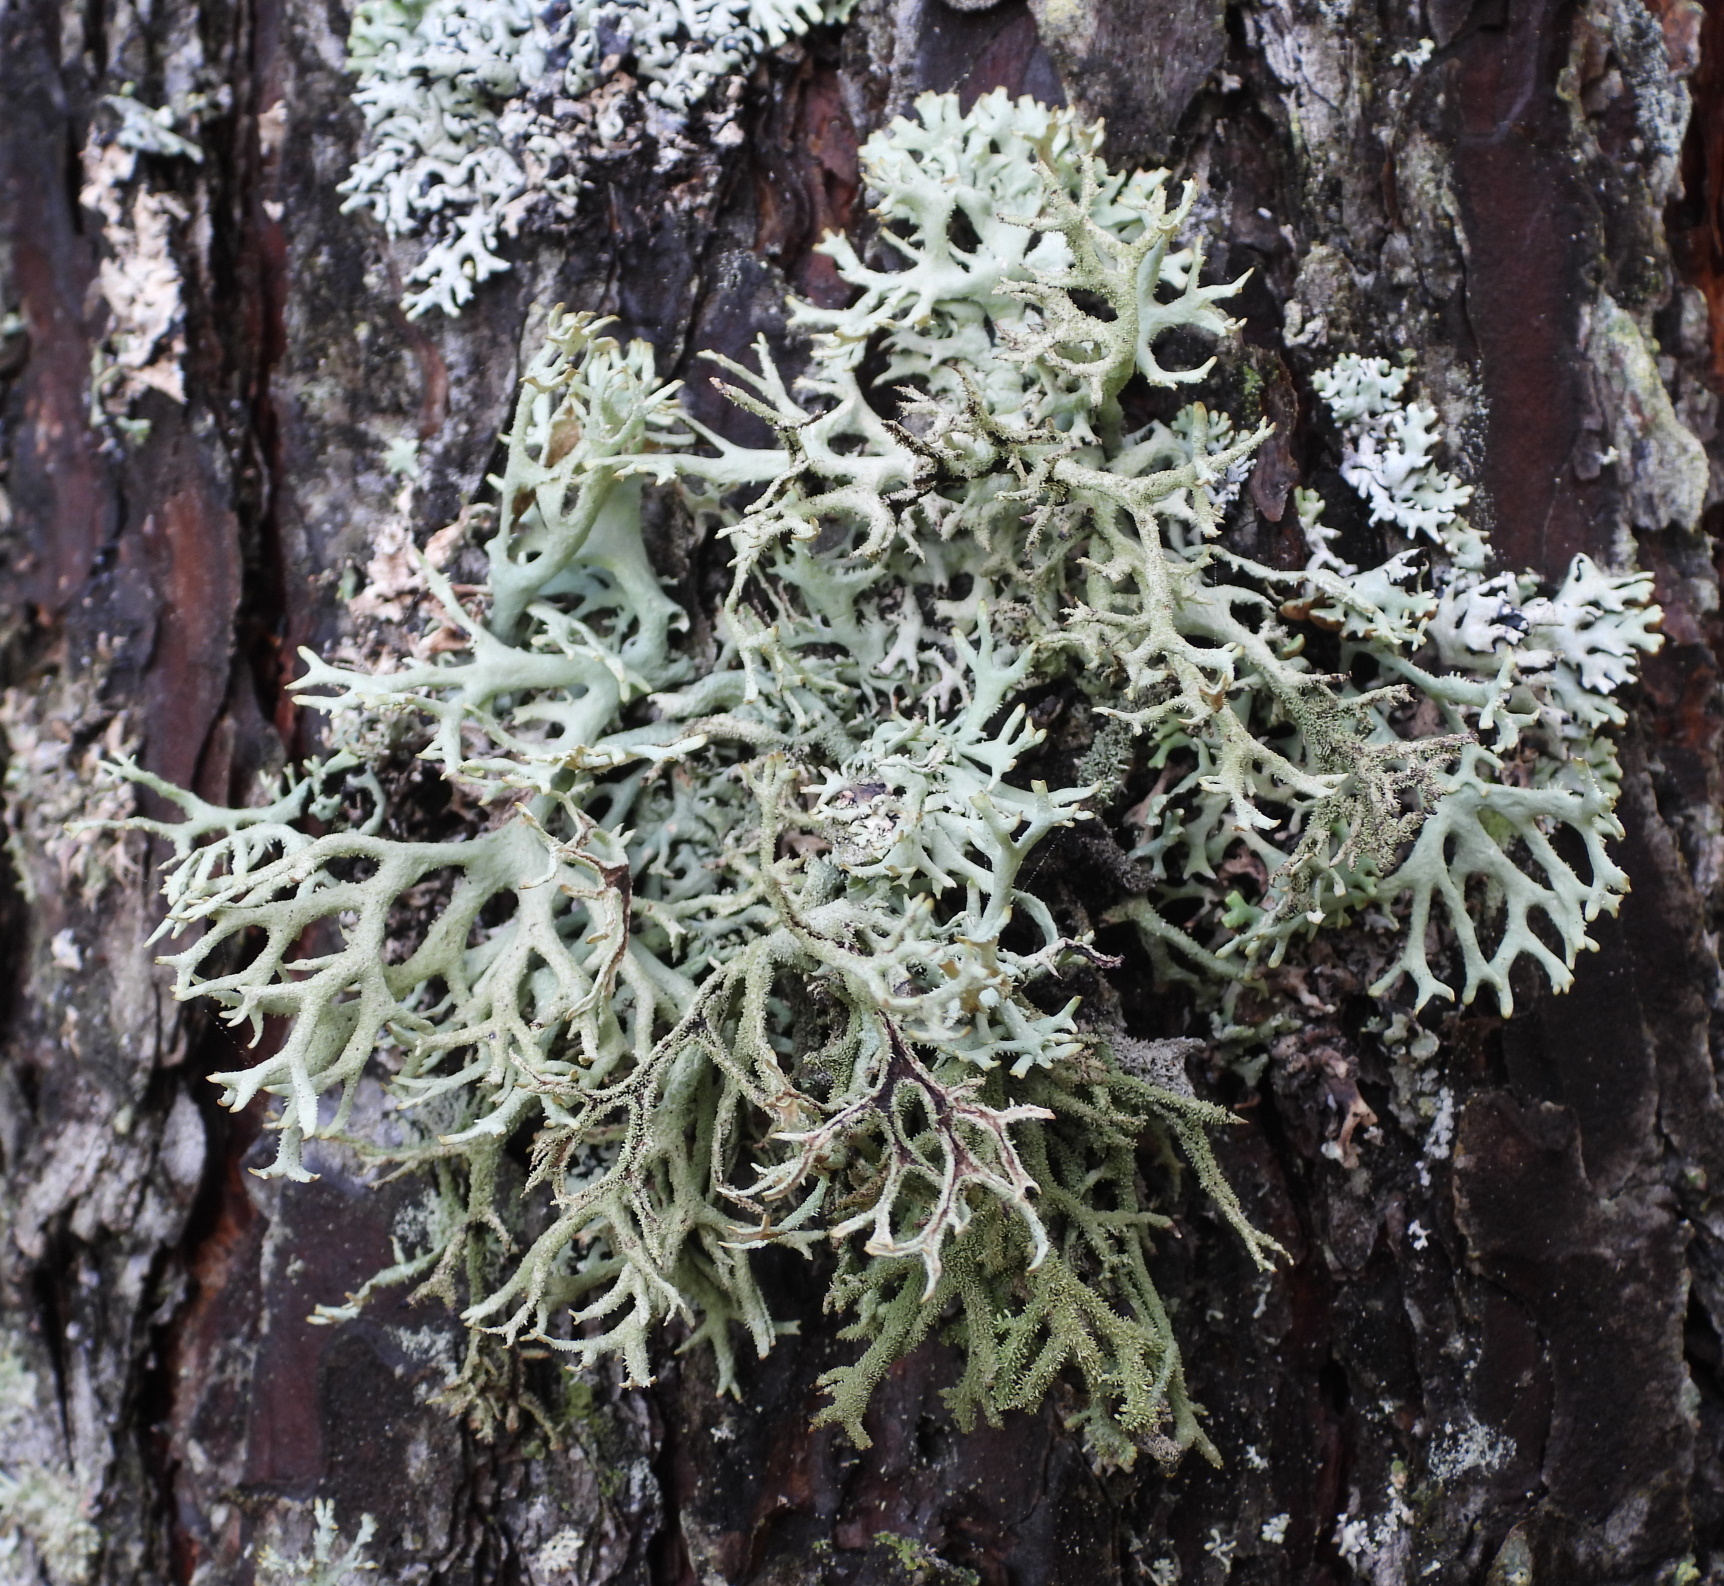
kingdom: Fungi
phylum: Ascomycota
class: Lecanoromycetes
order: Lecanorales
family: Parmeliaceae
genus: Pseudevernia
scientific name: Pseudevernia furfuracea
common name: Tree moss
